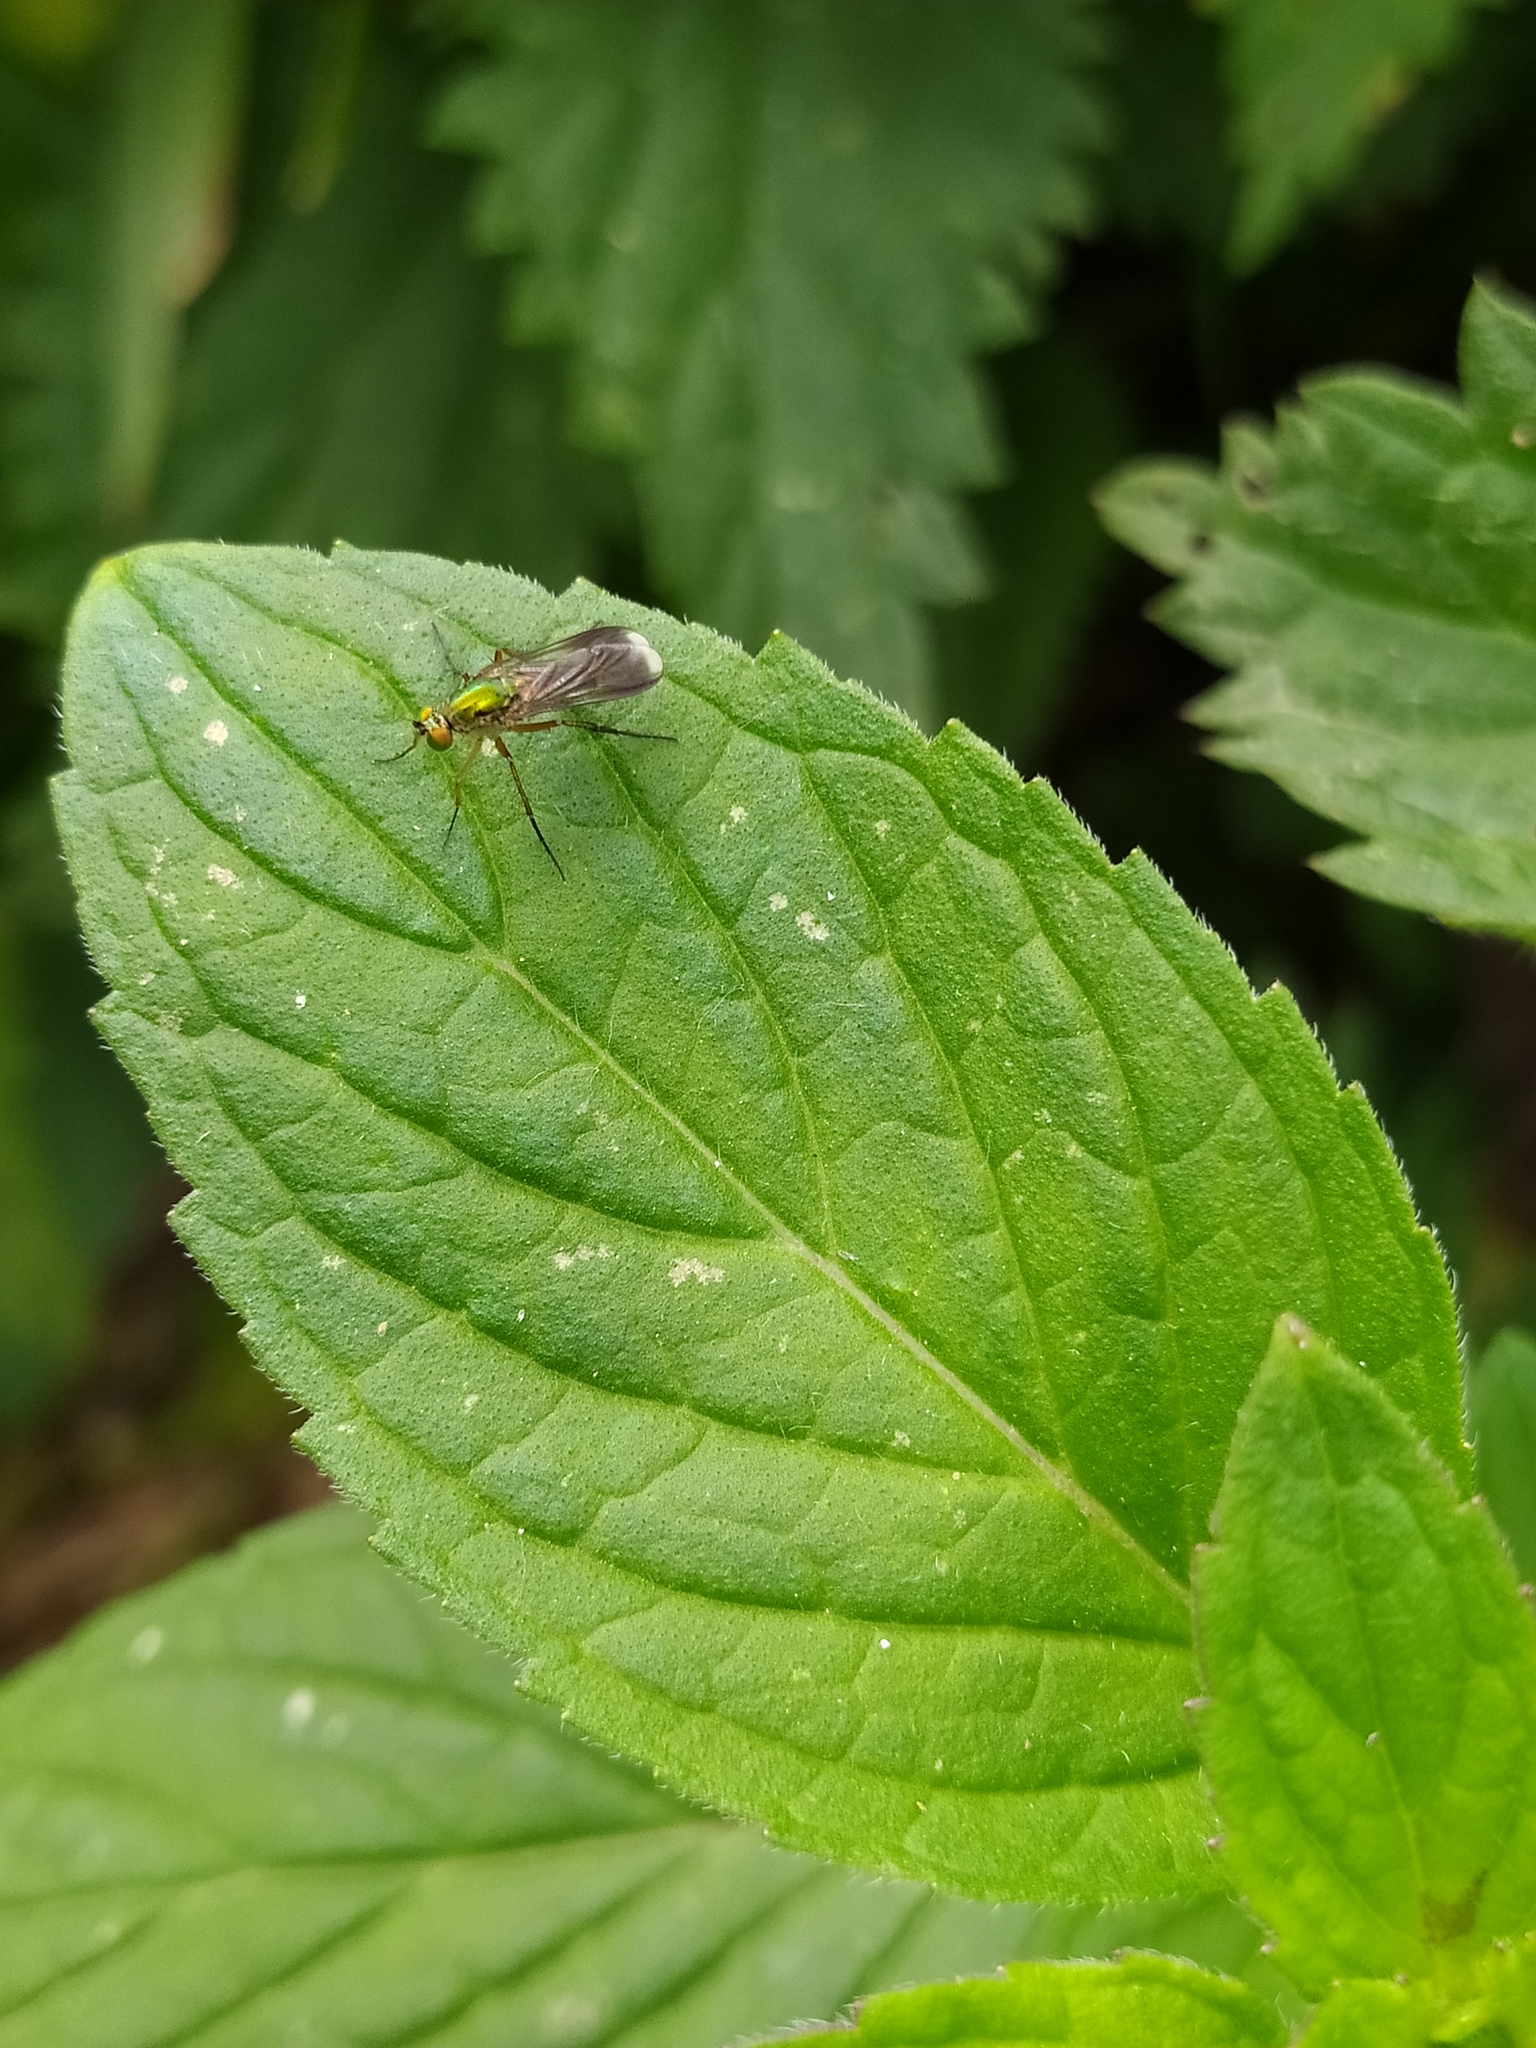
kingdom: Animalia
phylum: Arthropoda
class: Insecta
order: Diptera
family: Dolichopodidae
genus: Poecilobothrus
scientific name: Poecilobothrus nobilitatus
